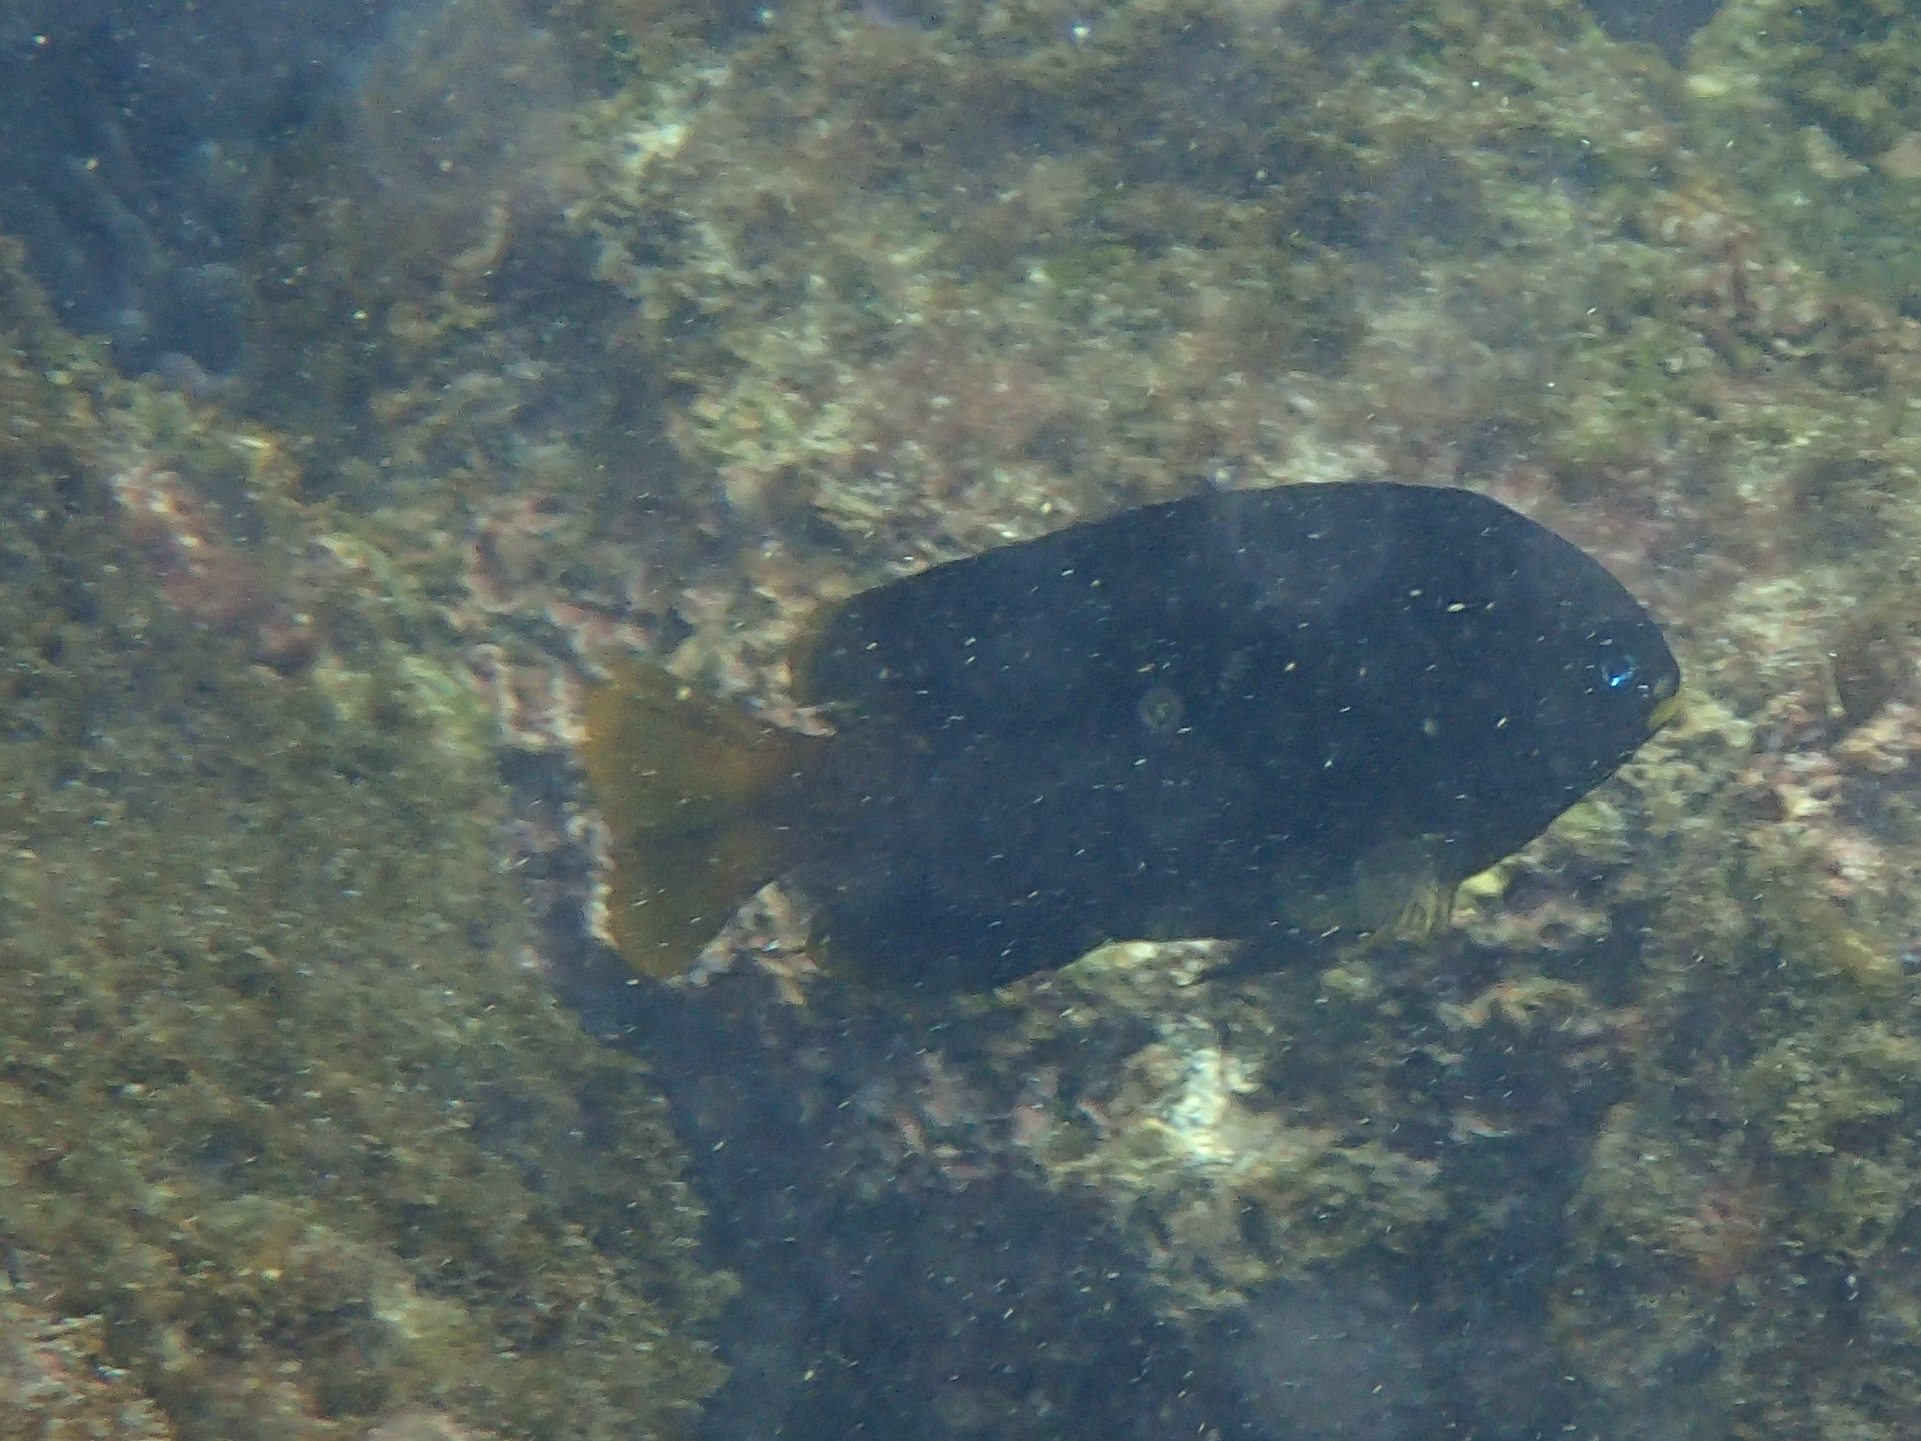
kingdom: Animalia
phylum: Chordata
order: Perciformes
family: Pomacentridae
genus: Stegastes
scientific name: Stegastes arcifrons
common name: Galapagos gregory
